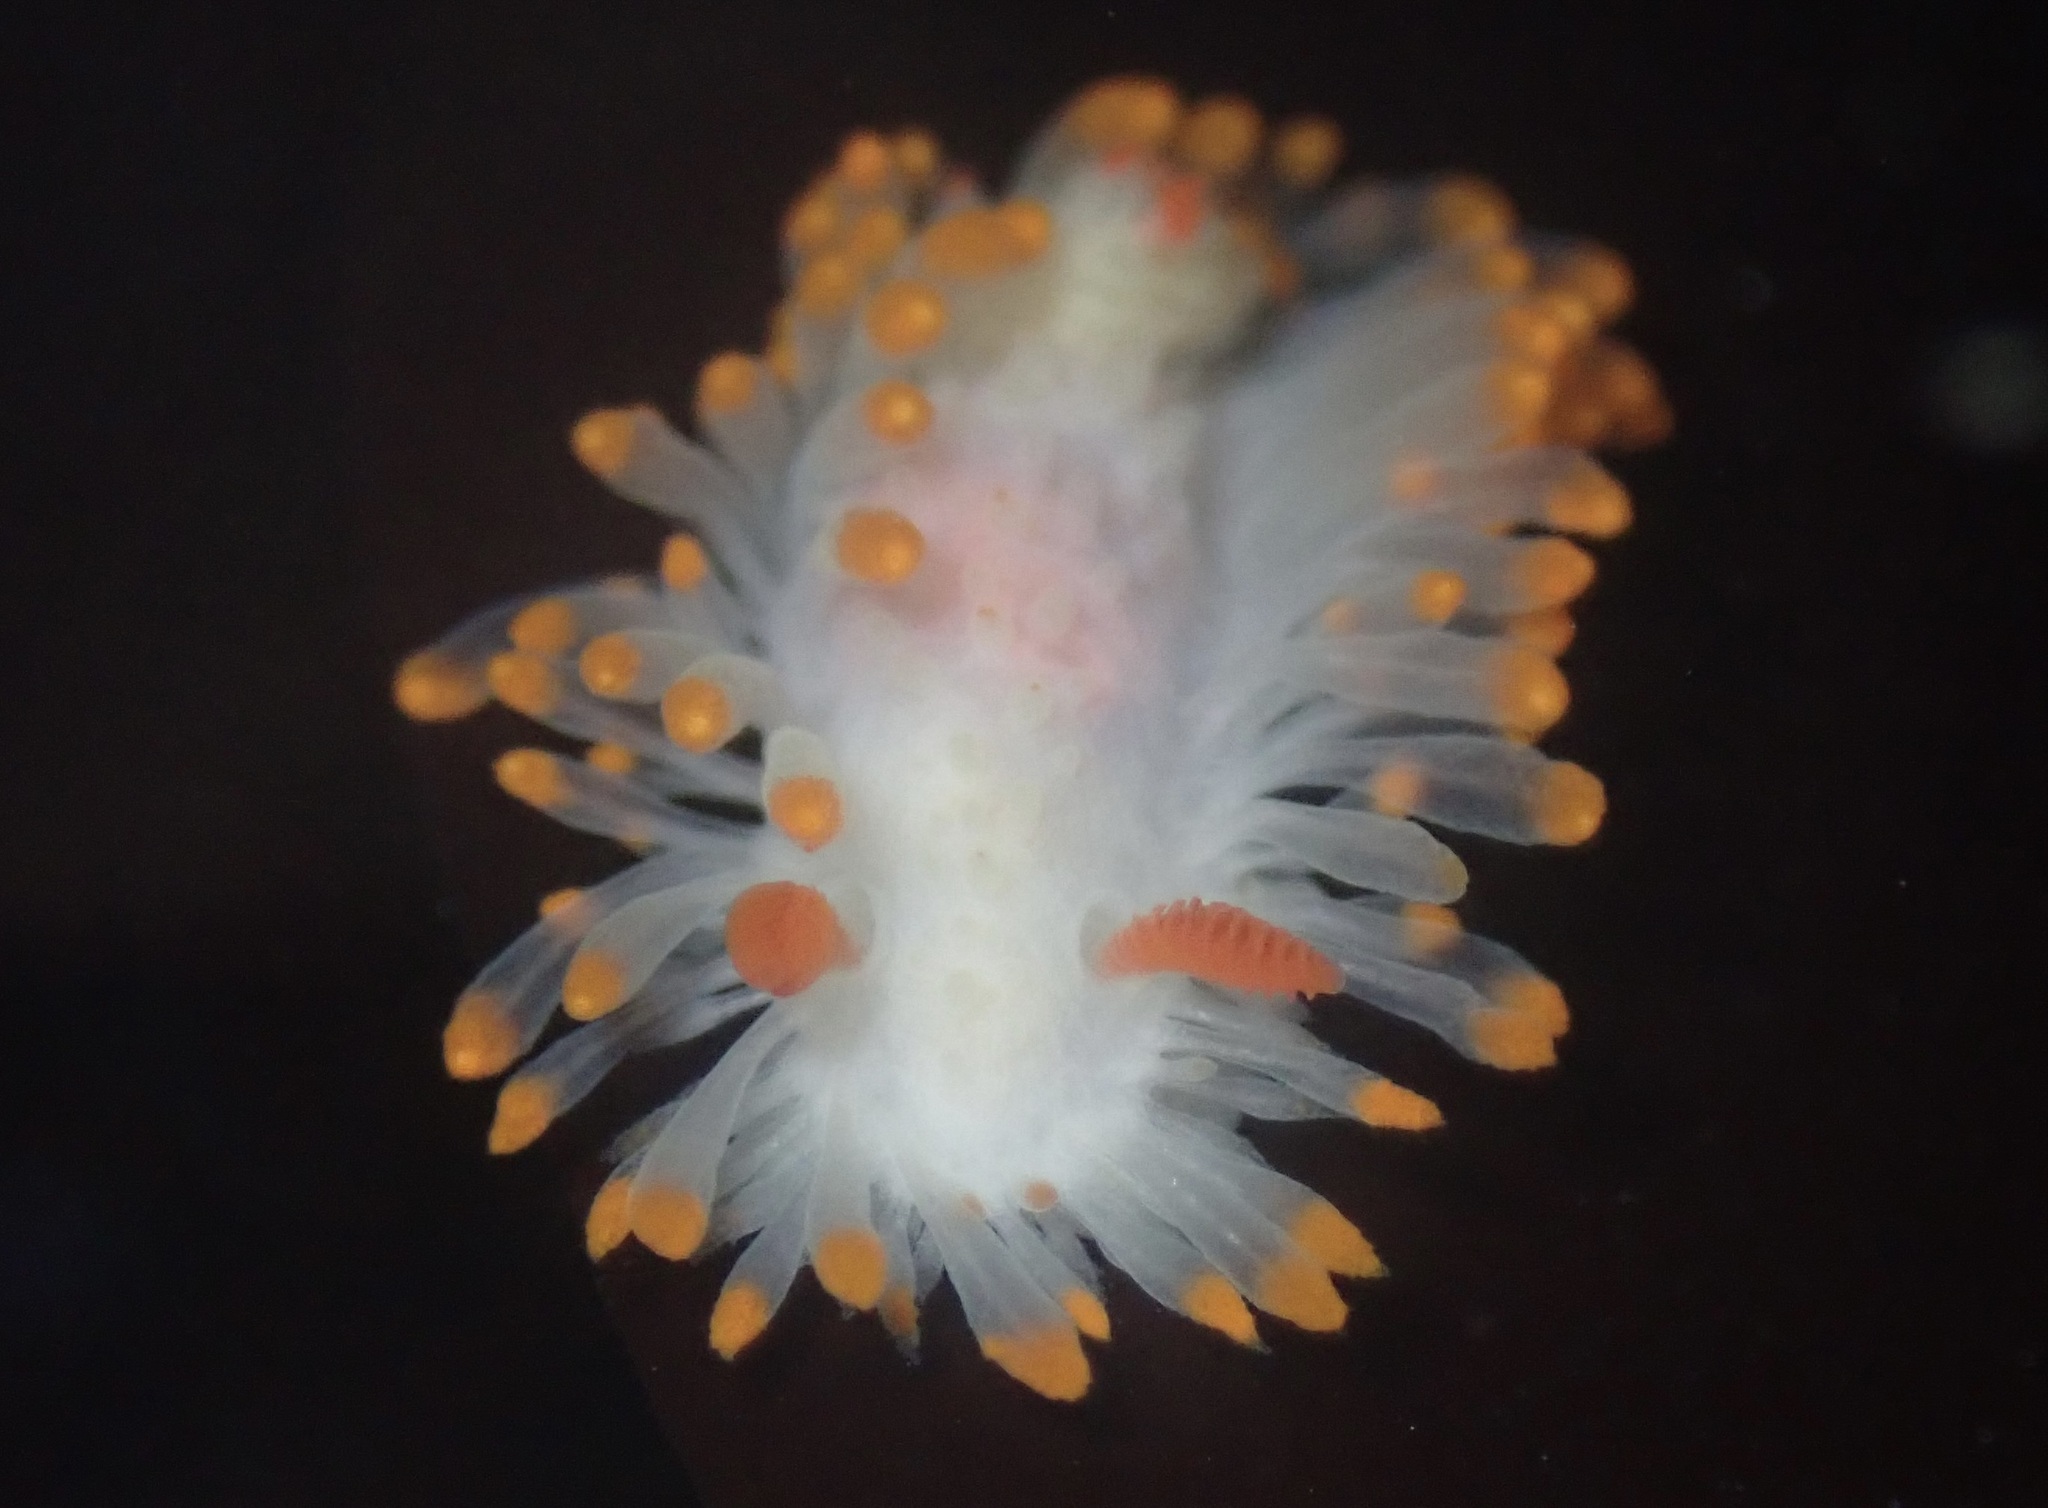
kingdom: Animalia
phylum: Mollusca
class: Gastropoda
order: Nudibranchia
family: Polyceridae
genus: Limacia
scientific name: Limacia cockerelli
